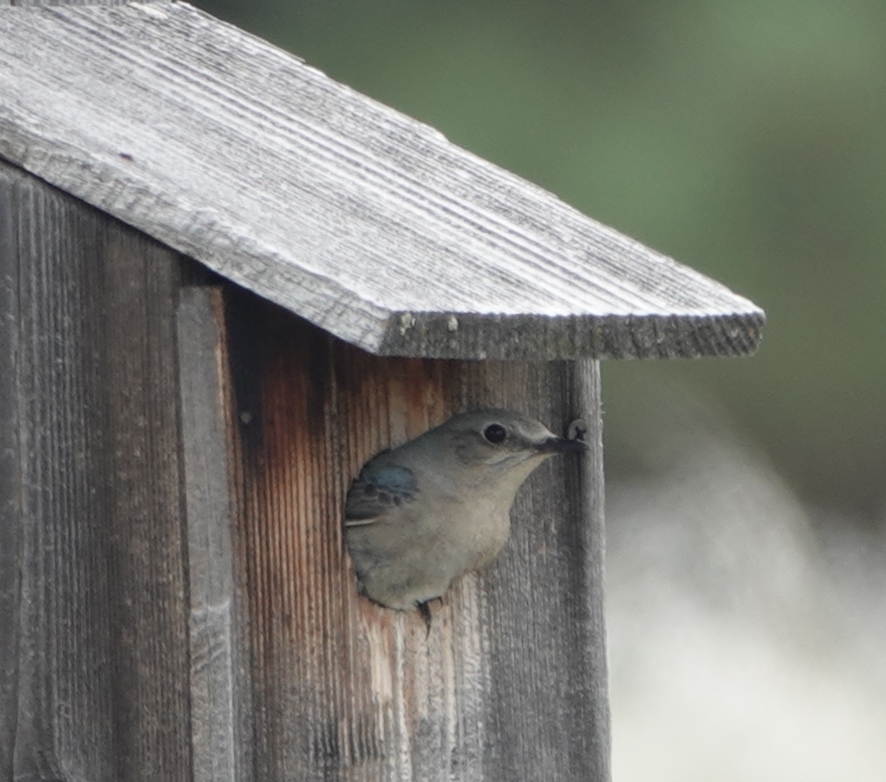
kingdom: Animalia
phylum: Chordata
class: Aves
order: Passeriformes
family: Turdidae
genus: Sialia
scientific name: Sialia currucoides
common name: Mountain bluebird
